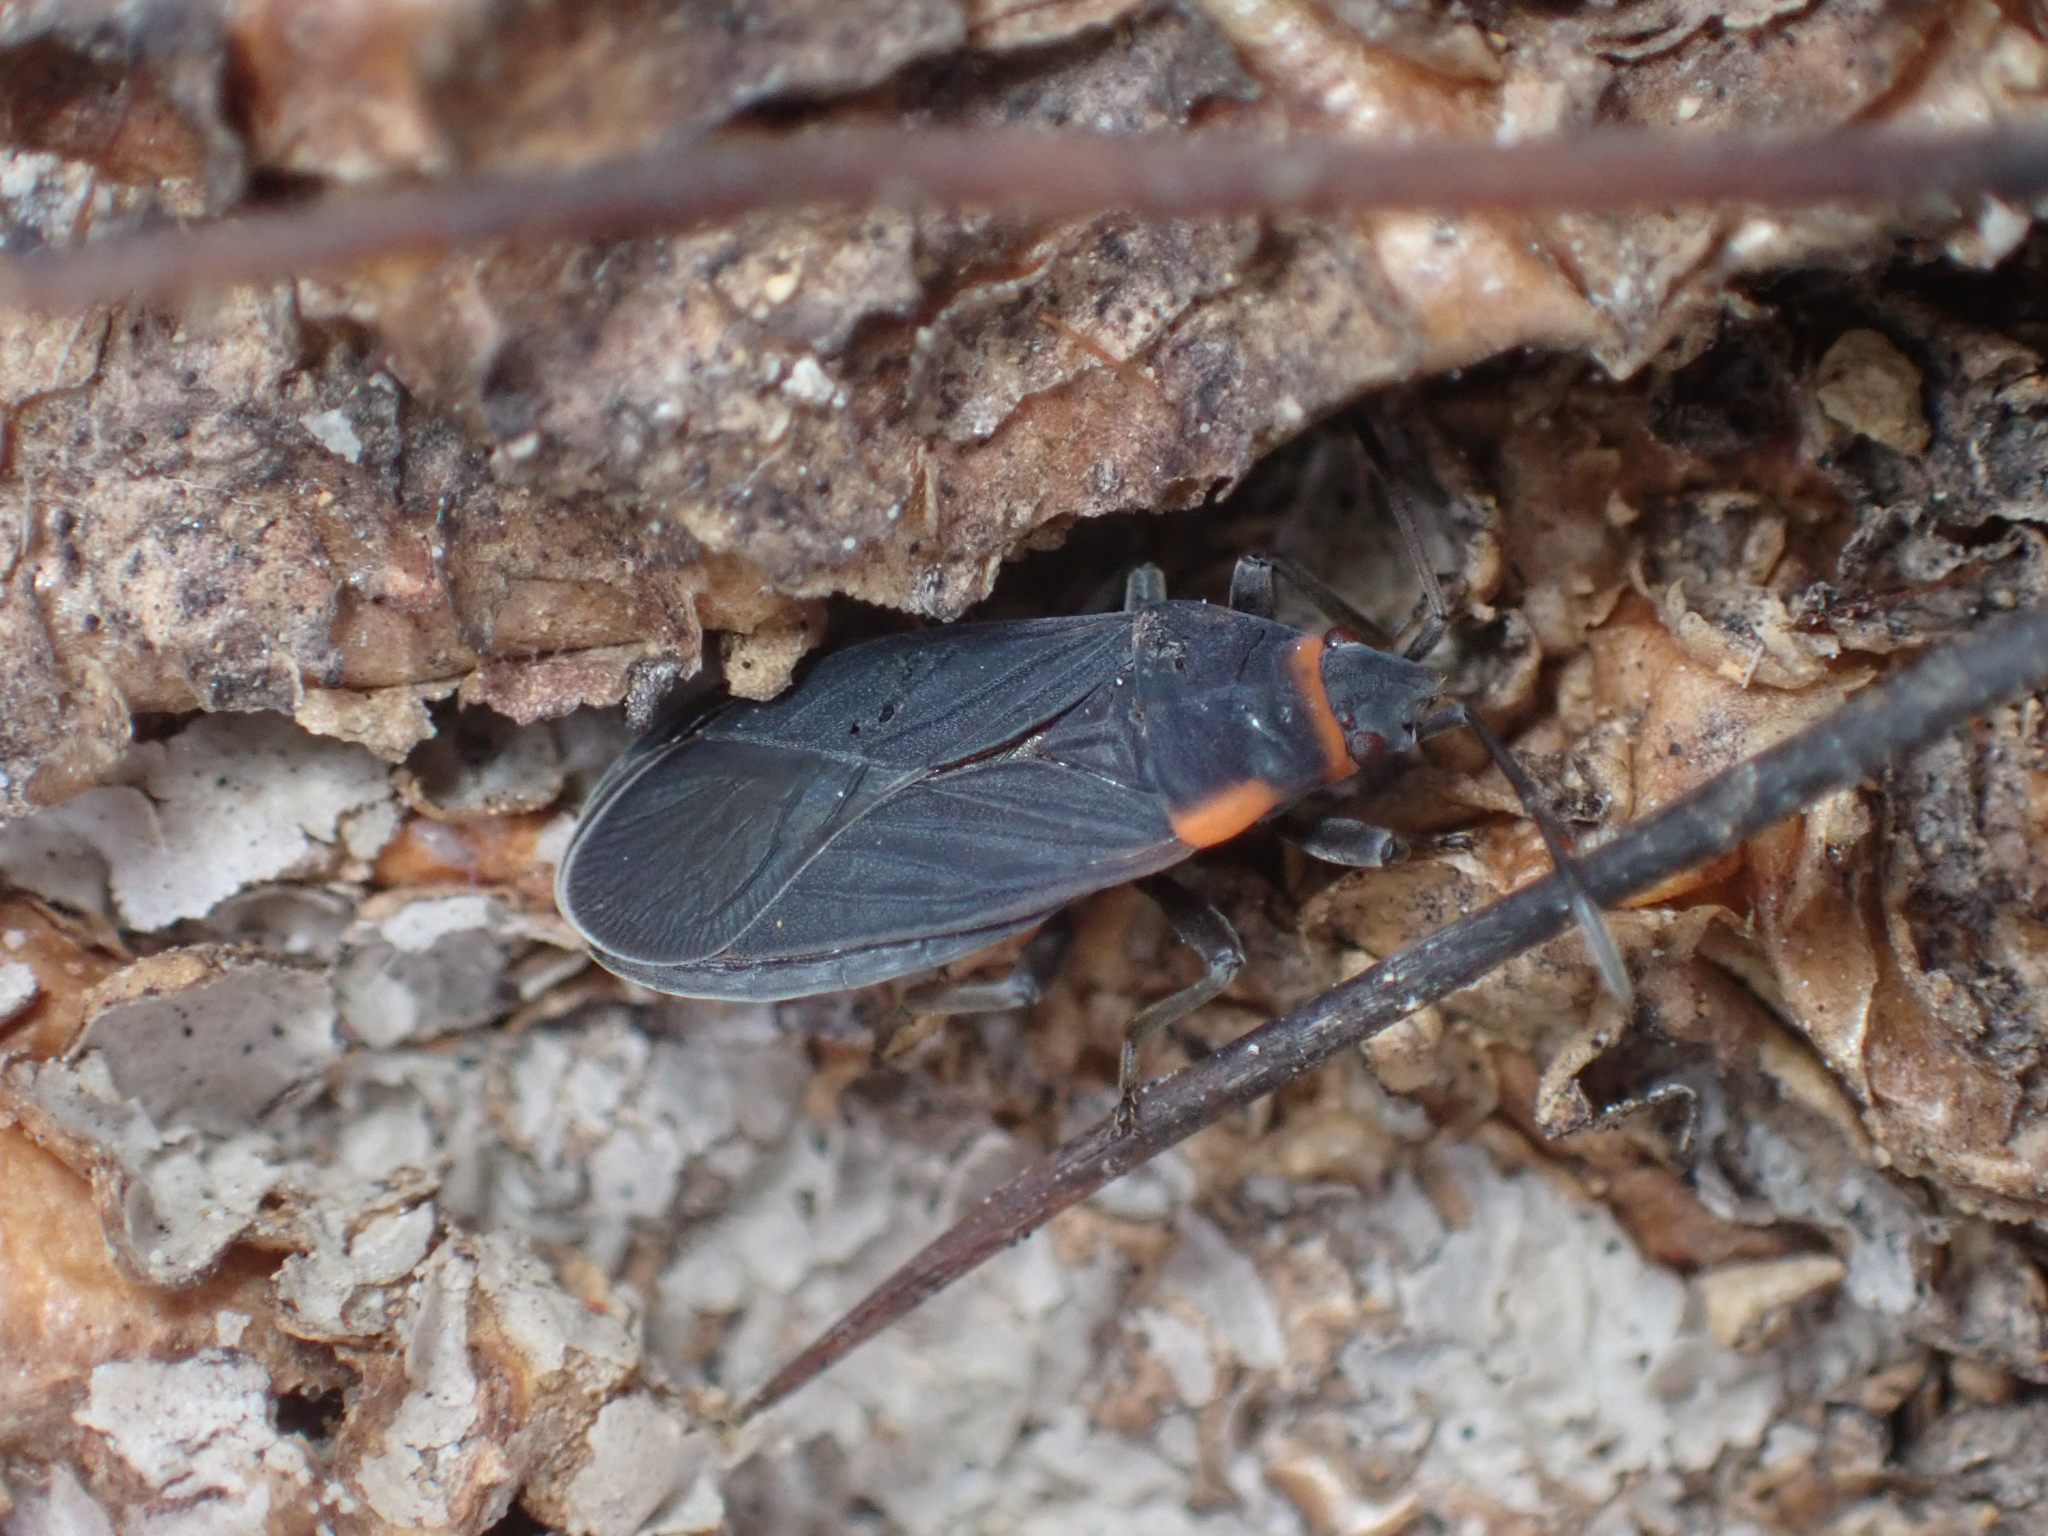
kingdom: Animalia
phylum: Arthropoda
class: Insecta
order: Hemiptera
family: Lygaeidae
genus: Melacoryphus
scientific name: Melacoryphus rubicollis
